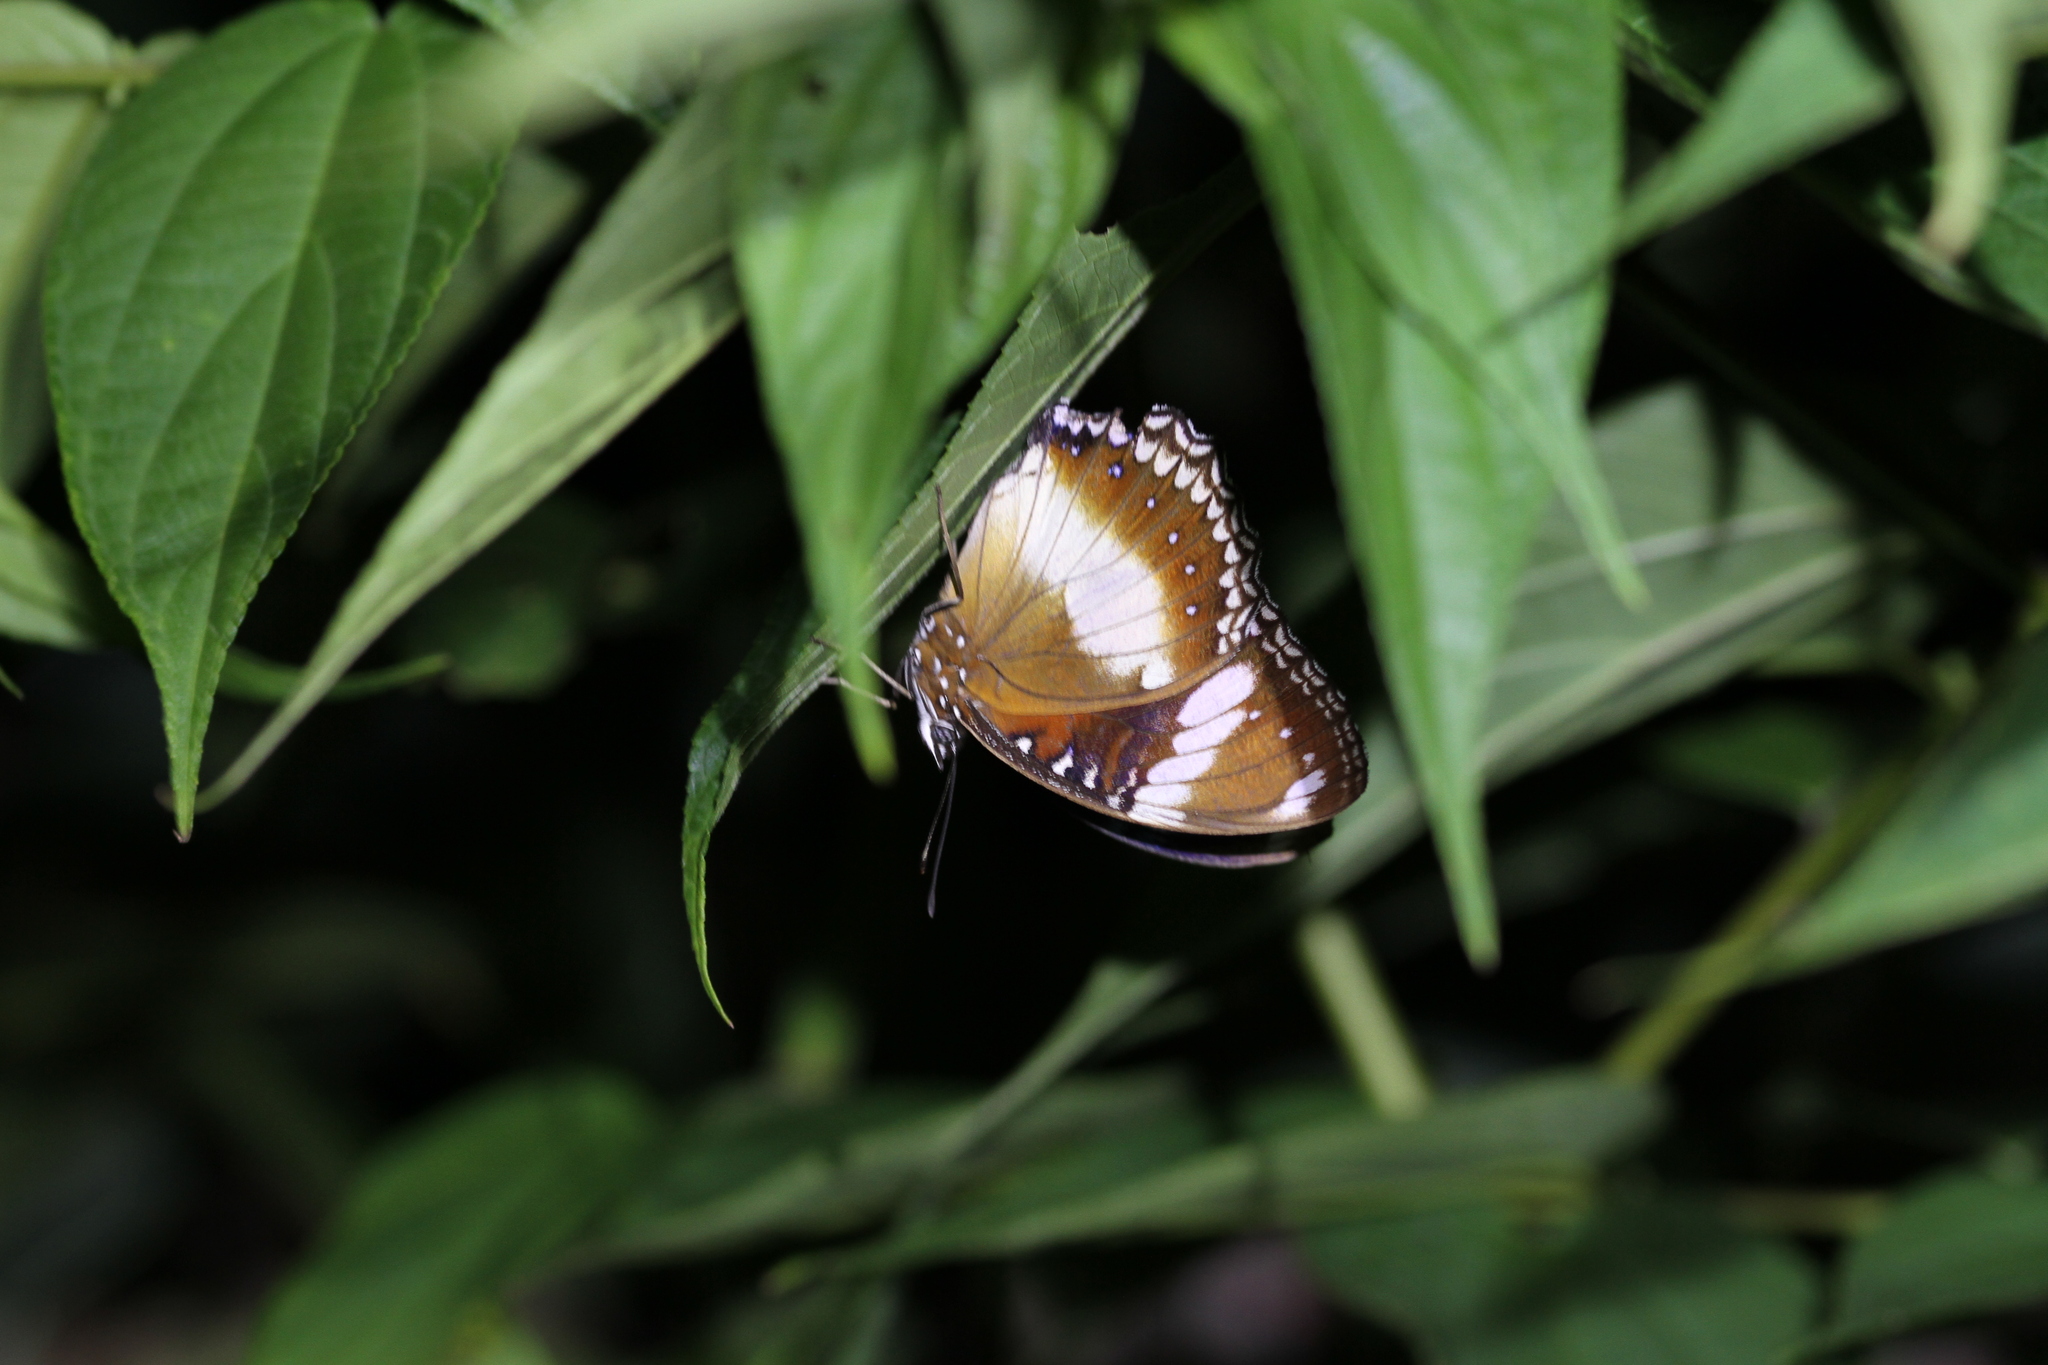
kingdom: Animalia
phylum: Arthropoda
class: Insecta
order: Lepidoptera
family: Nymphalidae
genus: Hypolimnas
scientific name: Hypolimnas bolina
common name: Great eggfly
